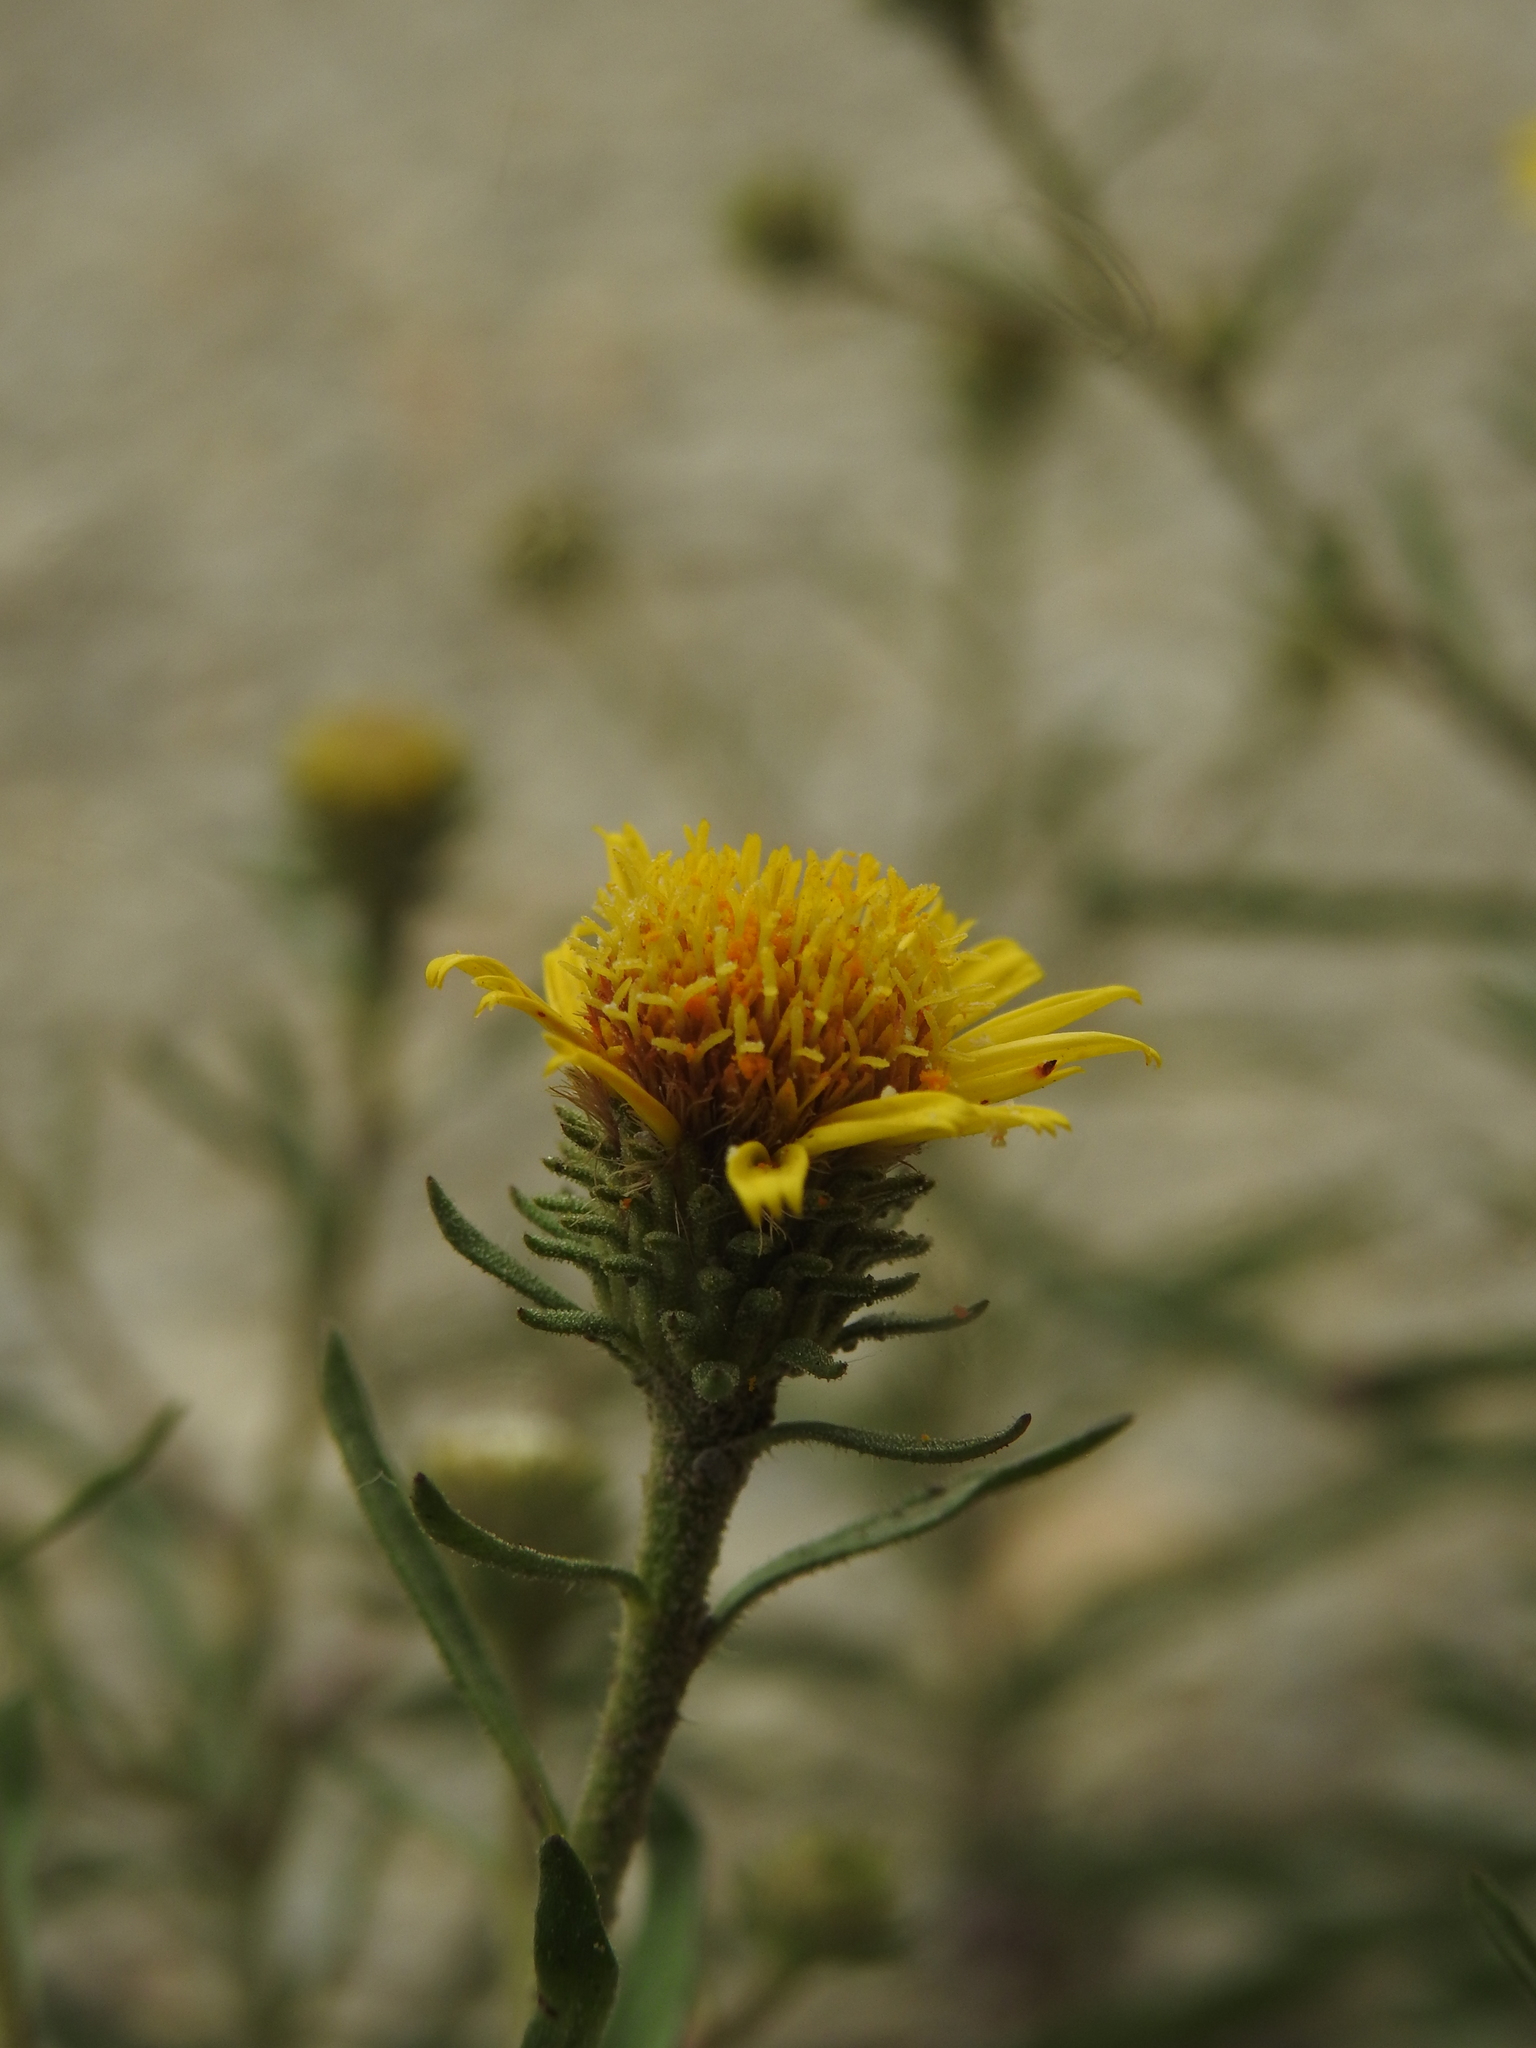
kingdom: Plantae
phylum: Tracheophyta
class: Magnoliopsida
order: Asterales
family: Asteraceae
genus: Jasonia
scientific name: Jasonia tuberosa
